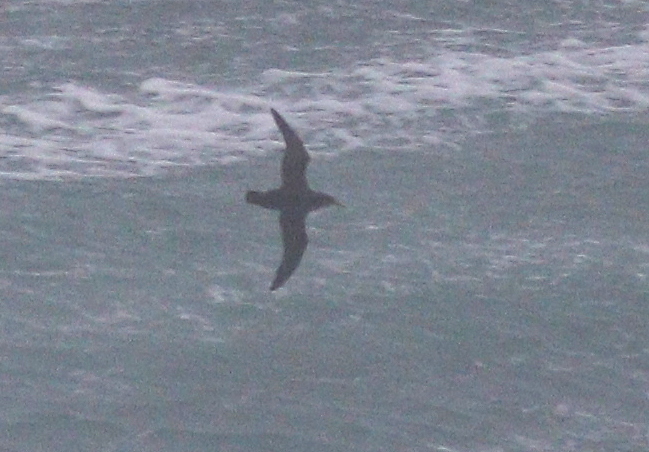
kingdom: Animalia
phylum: Chordata
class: Aves
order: Procellariiformes
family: Procellariidae
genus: Puffinus
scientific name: Puffinus mauretanicus
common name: Balearic shearwater
